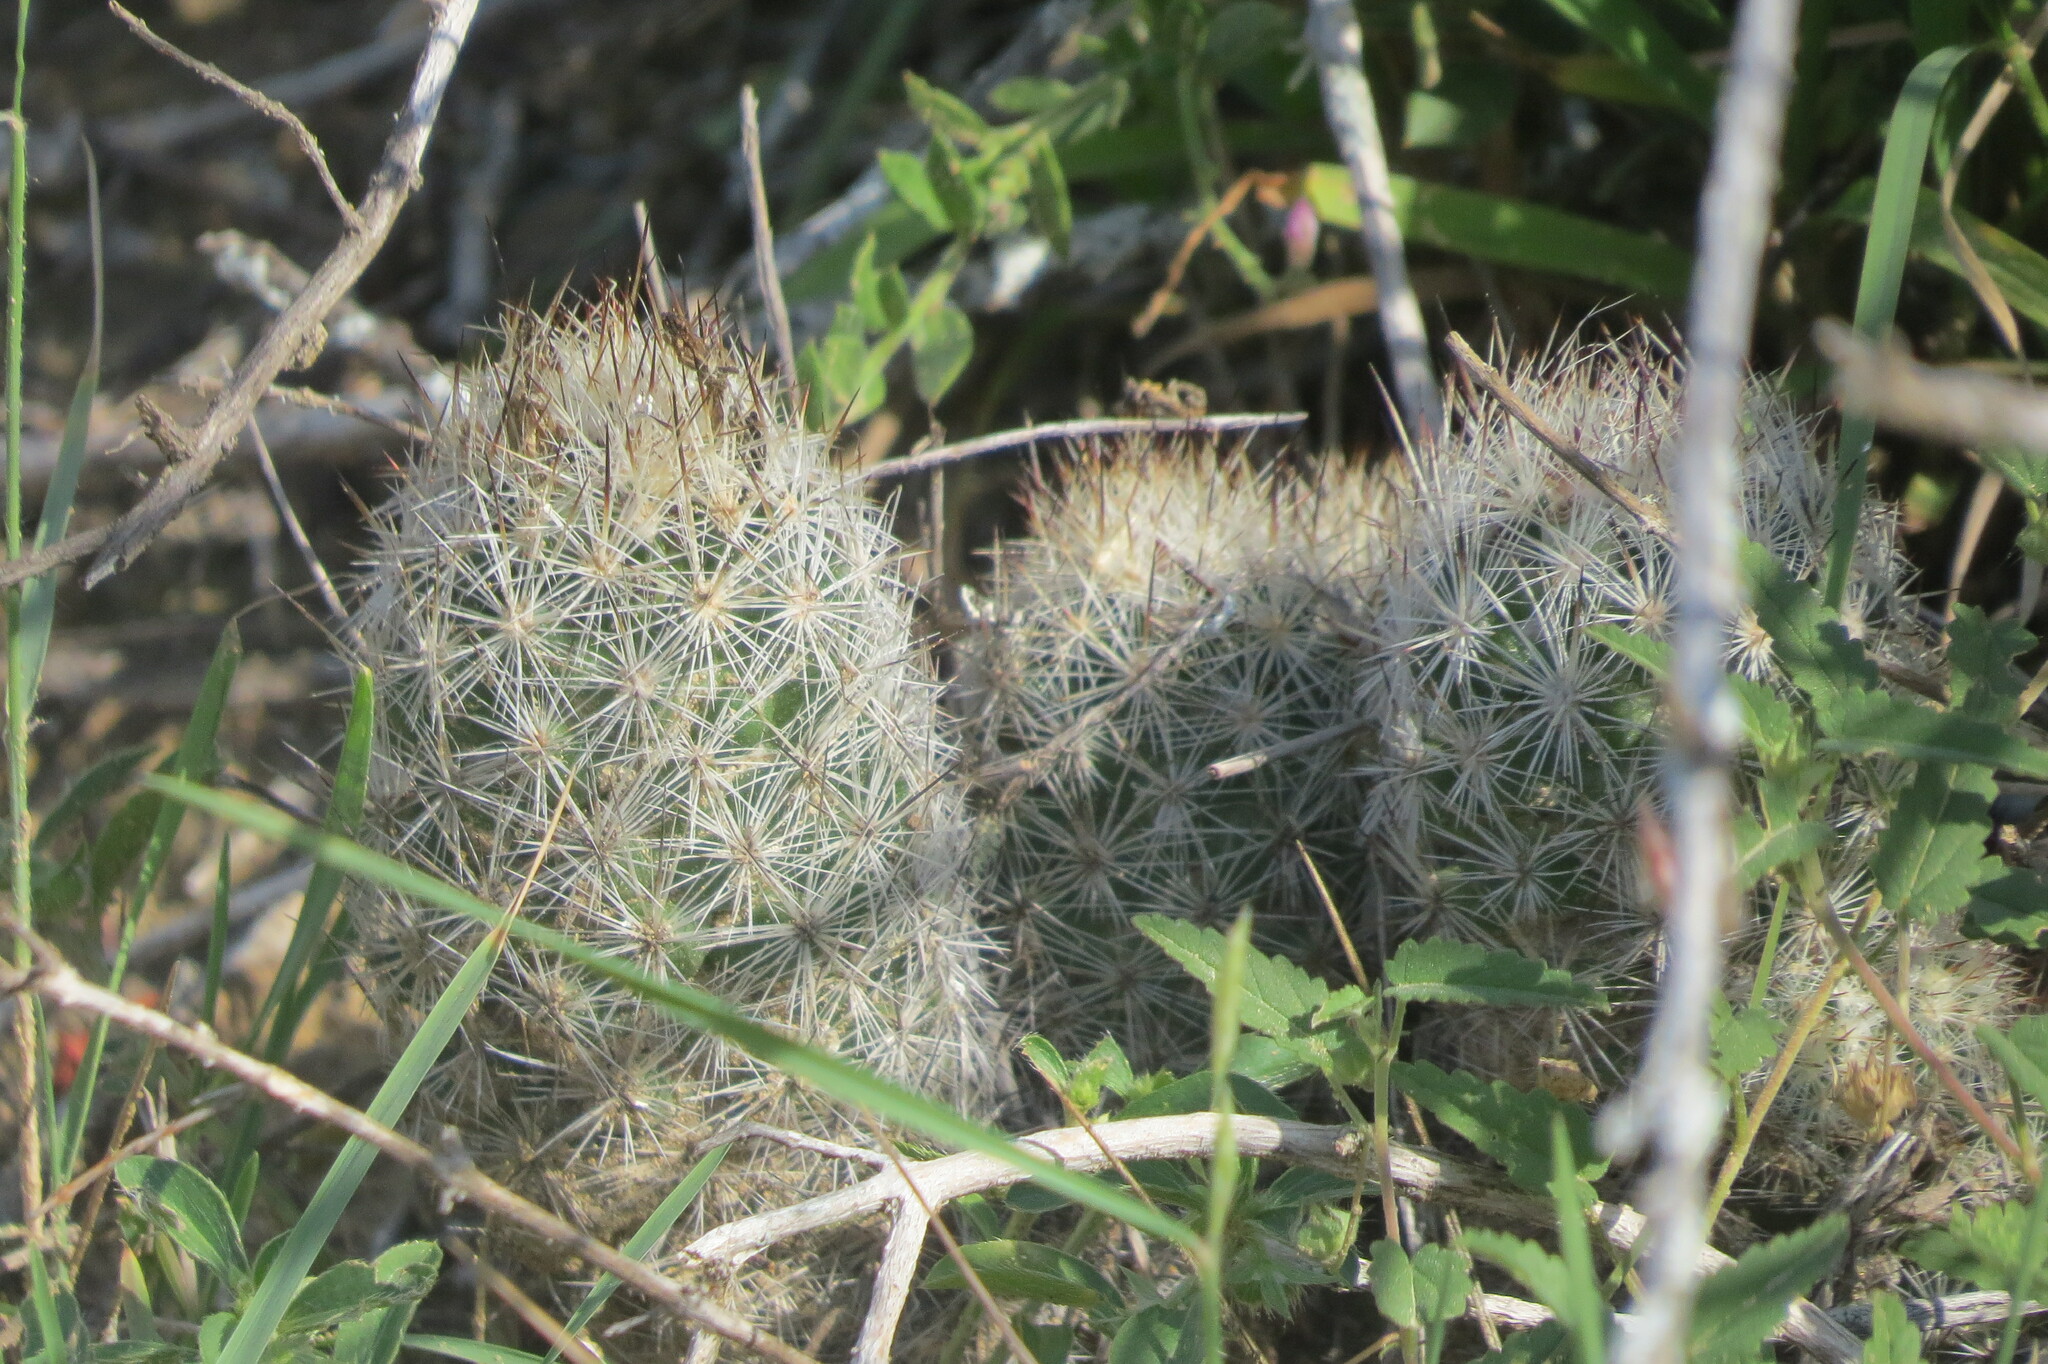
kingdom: Plantae
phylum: Tracheophyta
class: Magnoliopsida
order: Caryophyllales
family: Cactaceae
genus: Pelecyphora
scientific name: Pelecyphora emskoetteriana
